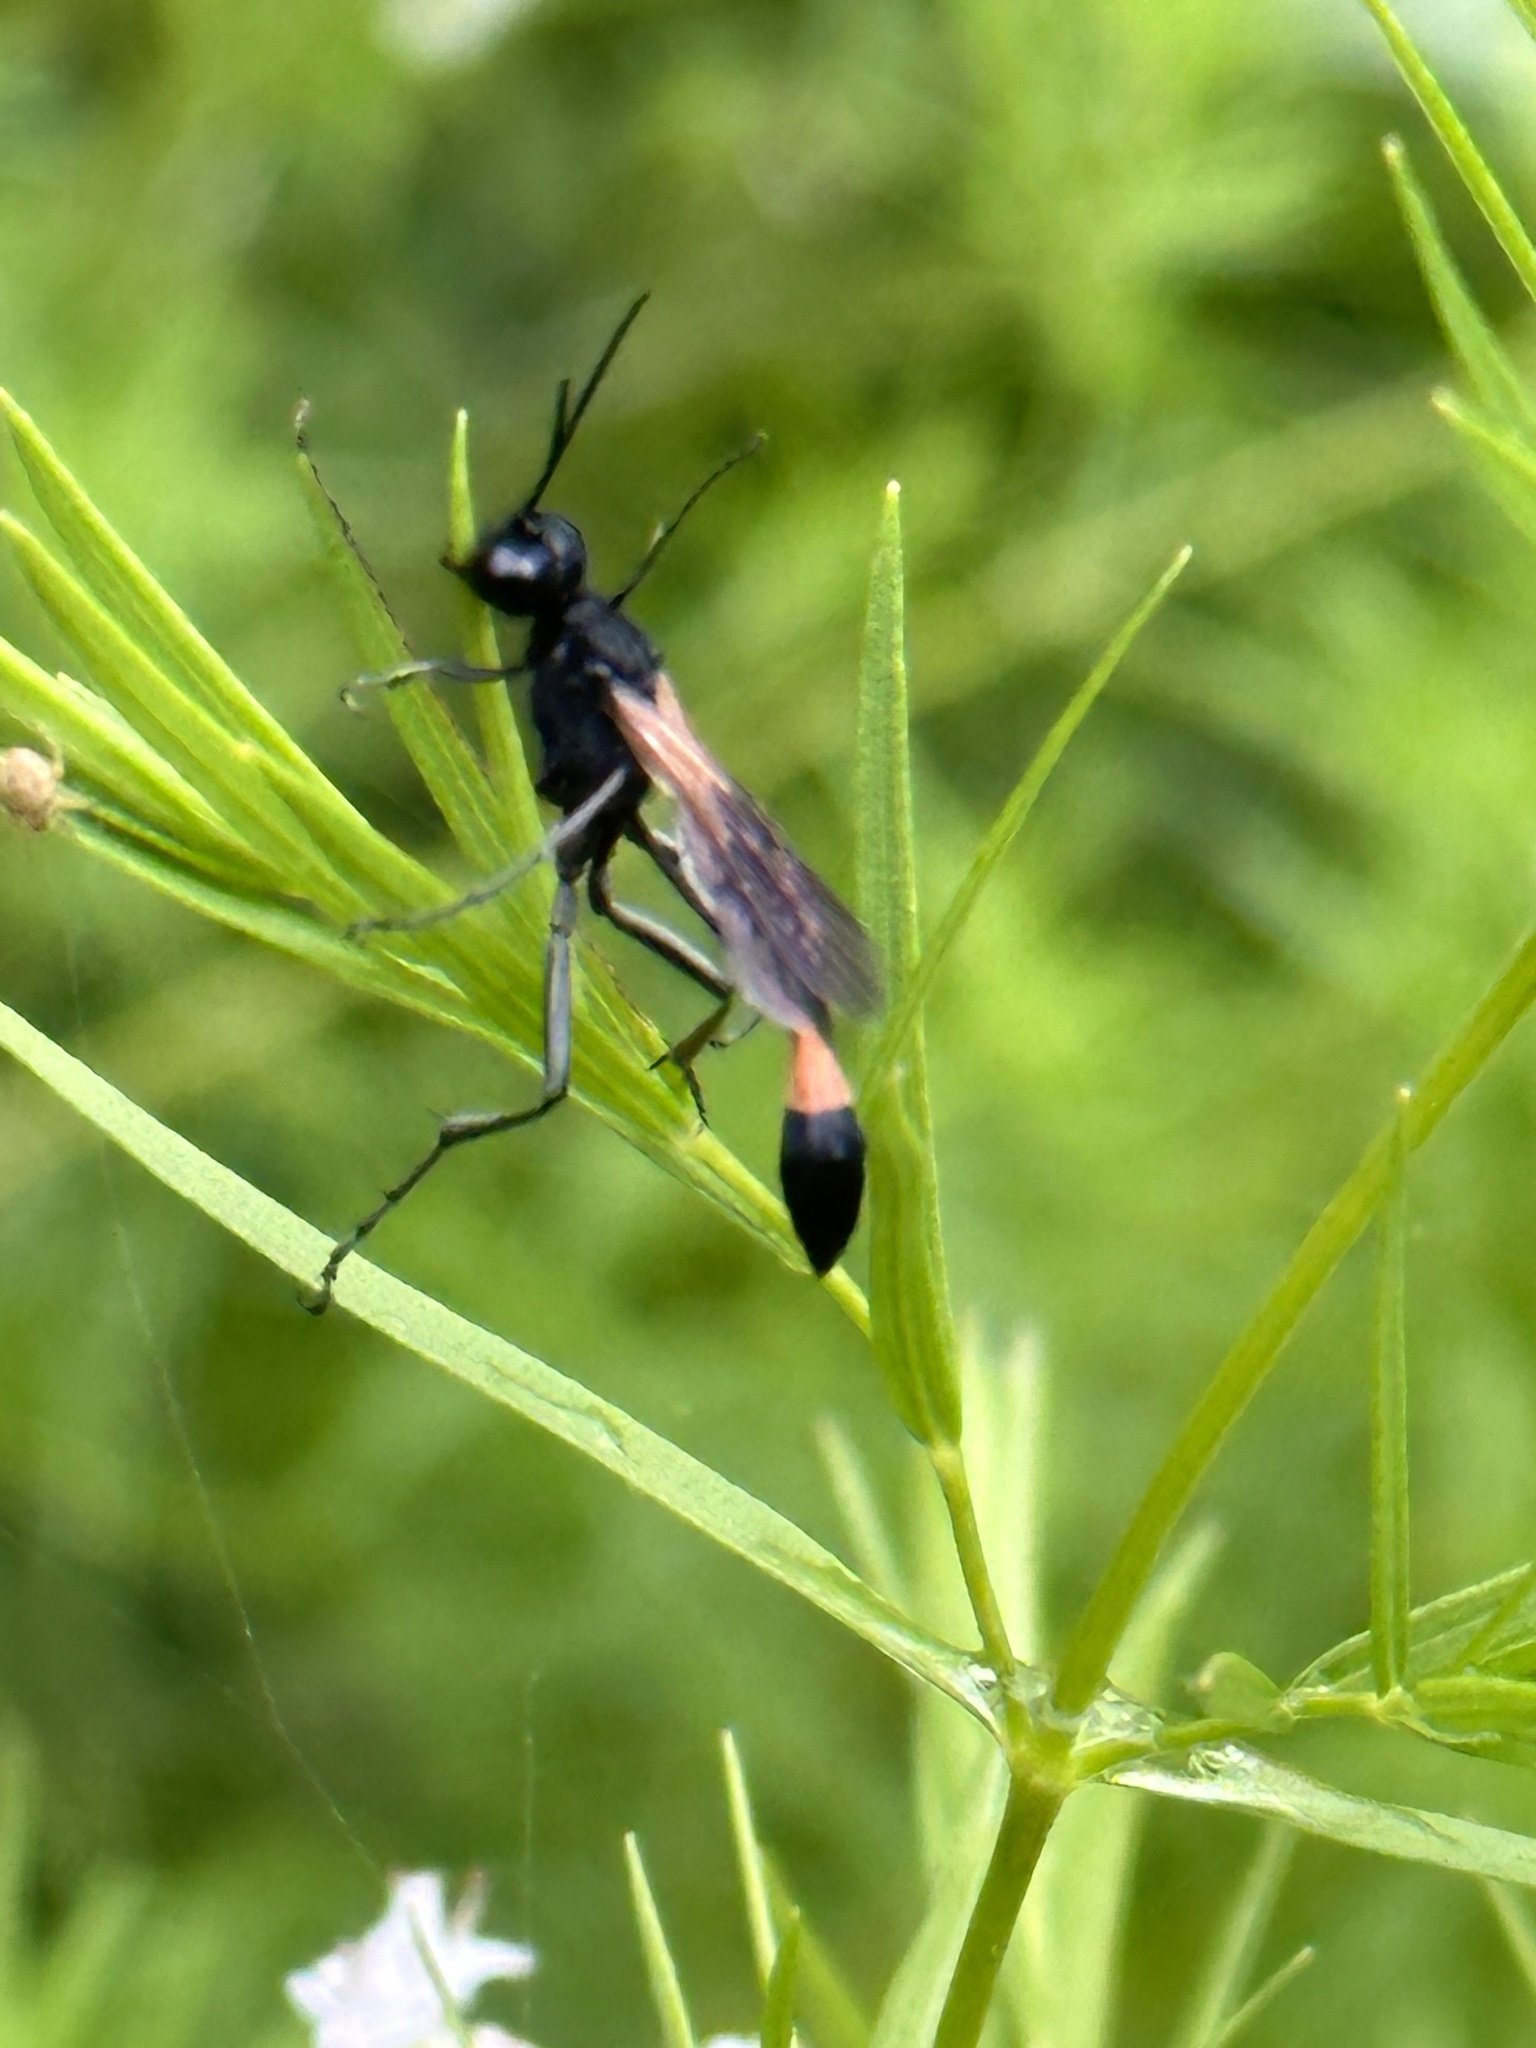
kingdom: Animalia
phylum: Arthropoda
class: Insecta
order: Hymenoptera
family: Sphecidae
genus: Ammophila
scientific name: Ammophila pictipennis
